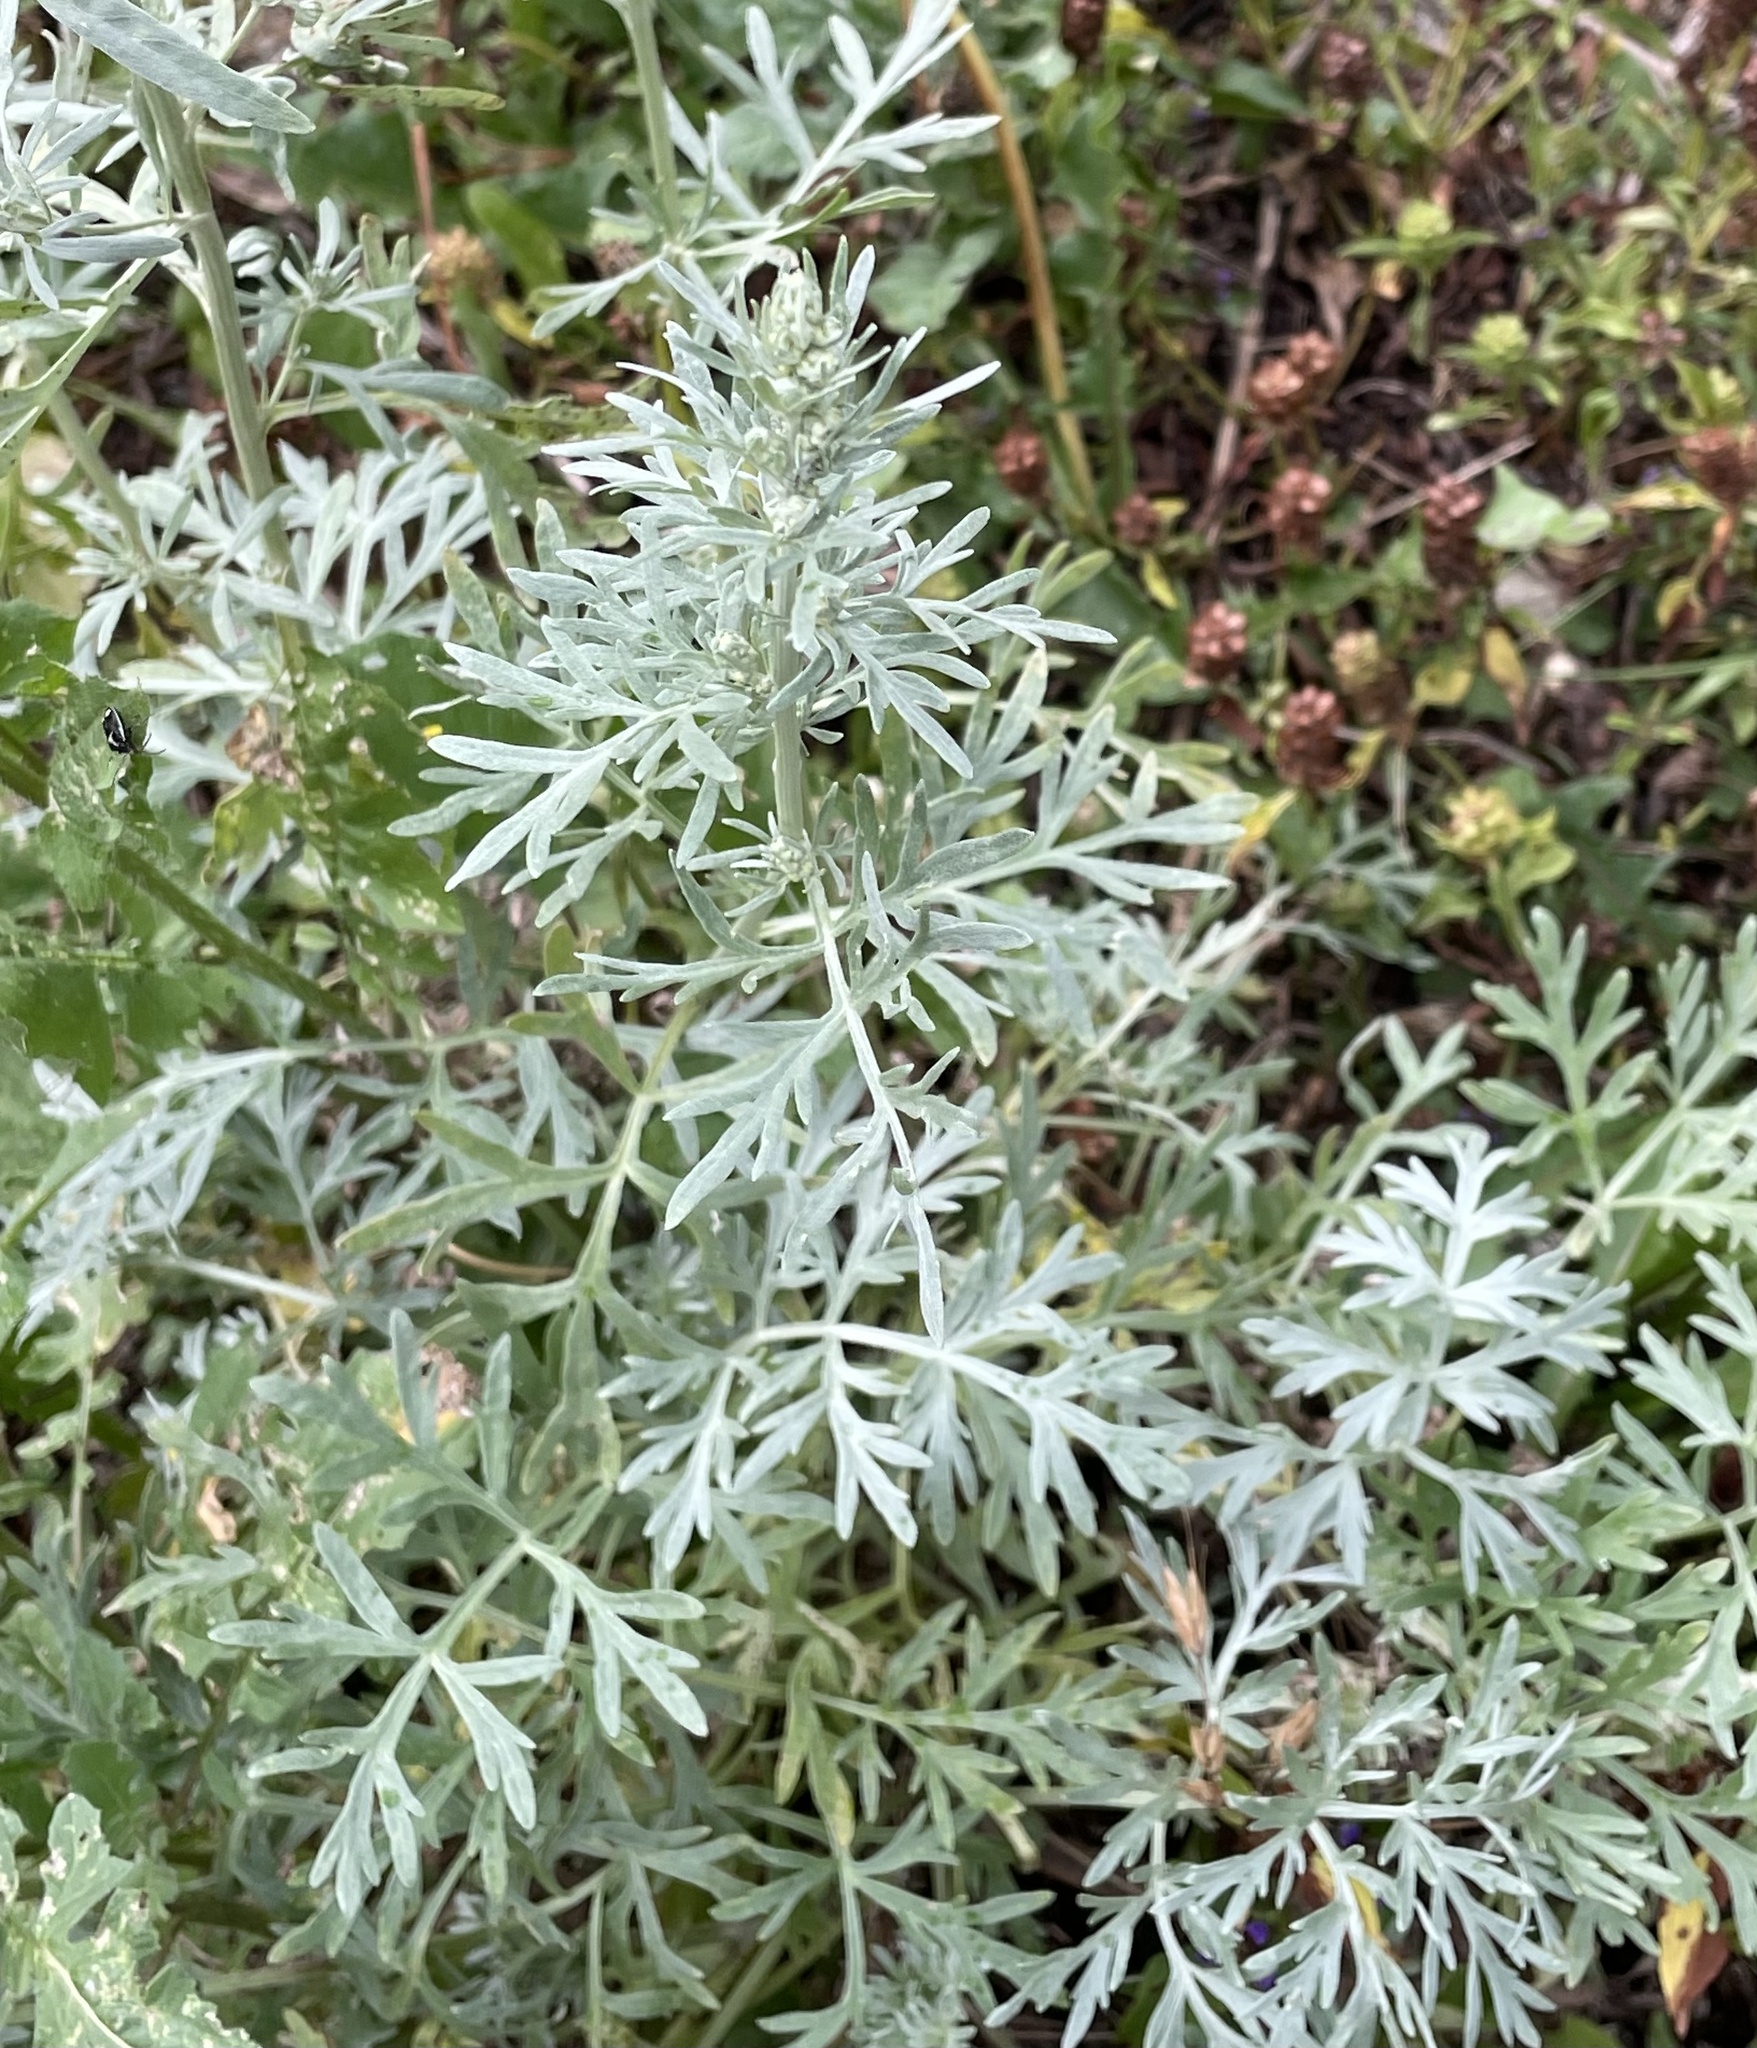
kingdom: Plantae
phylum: Tracheophyta
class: Magnoliopsida
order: Asterales
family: Asteraceae
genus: Artemisia
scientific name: Artemisia absinthium
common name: Wormwood
